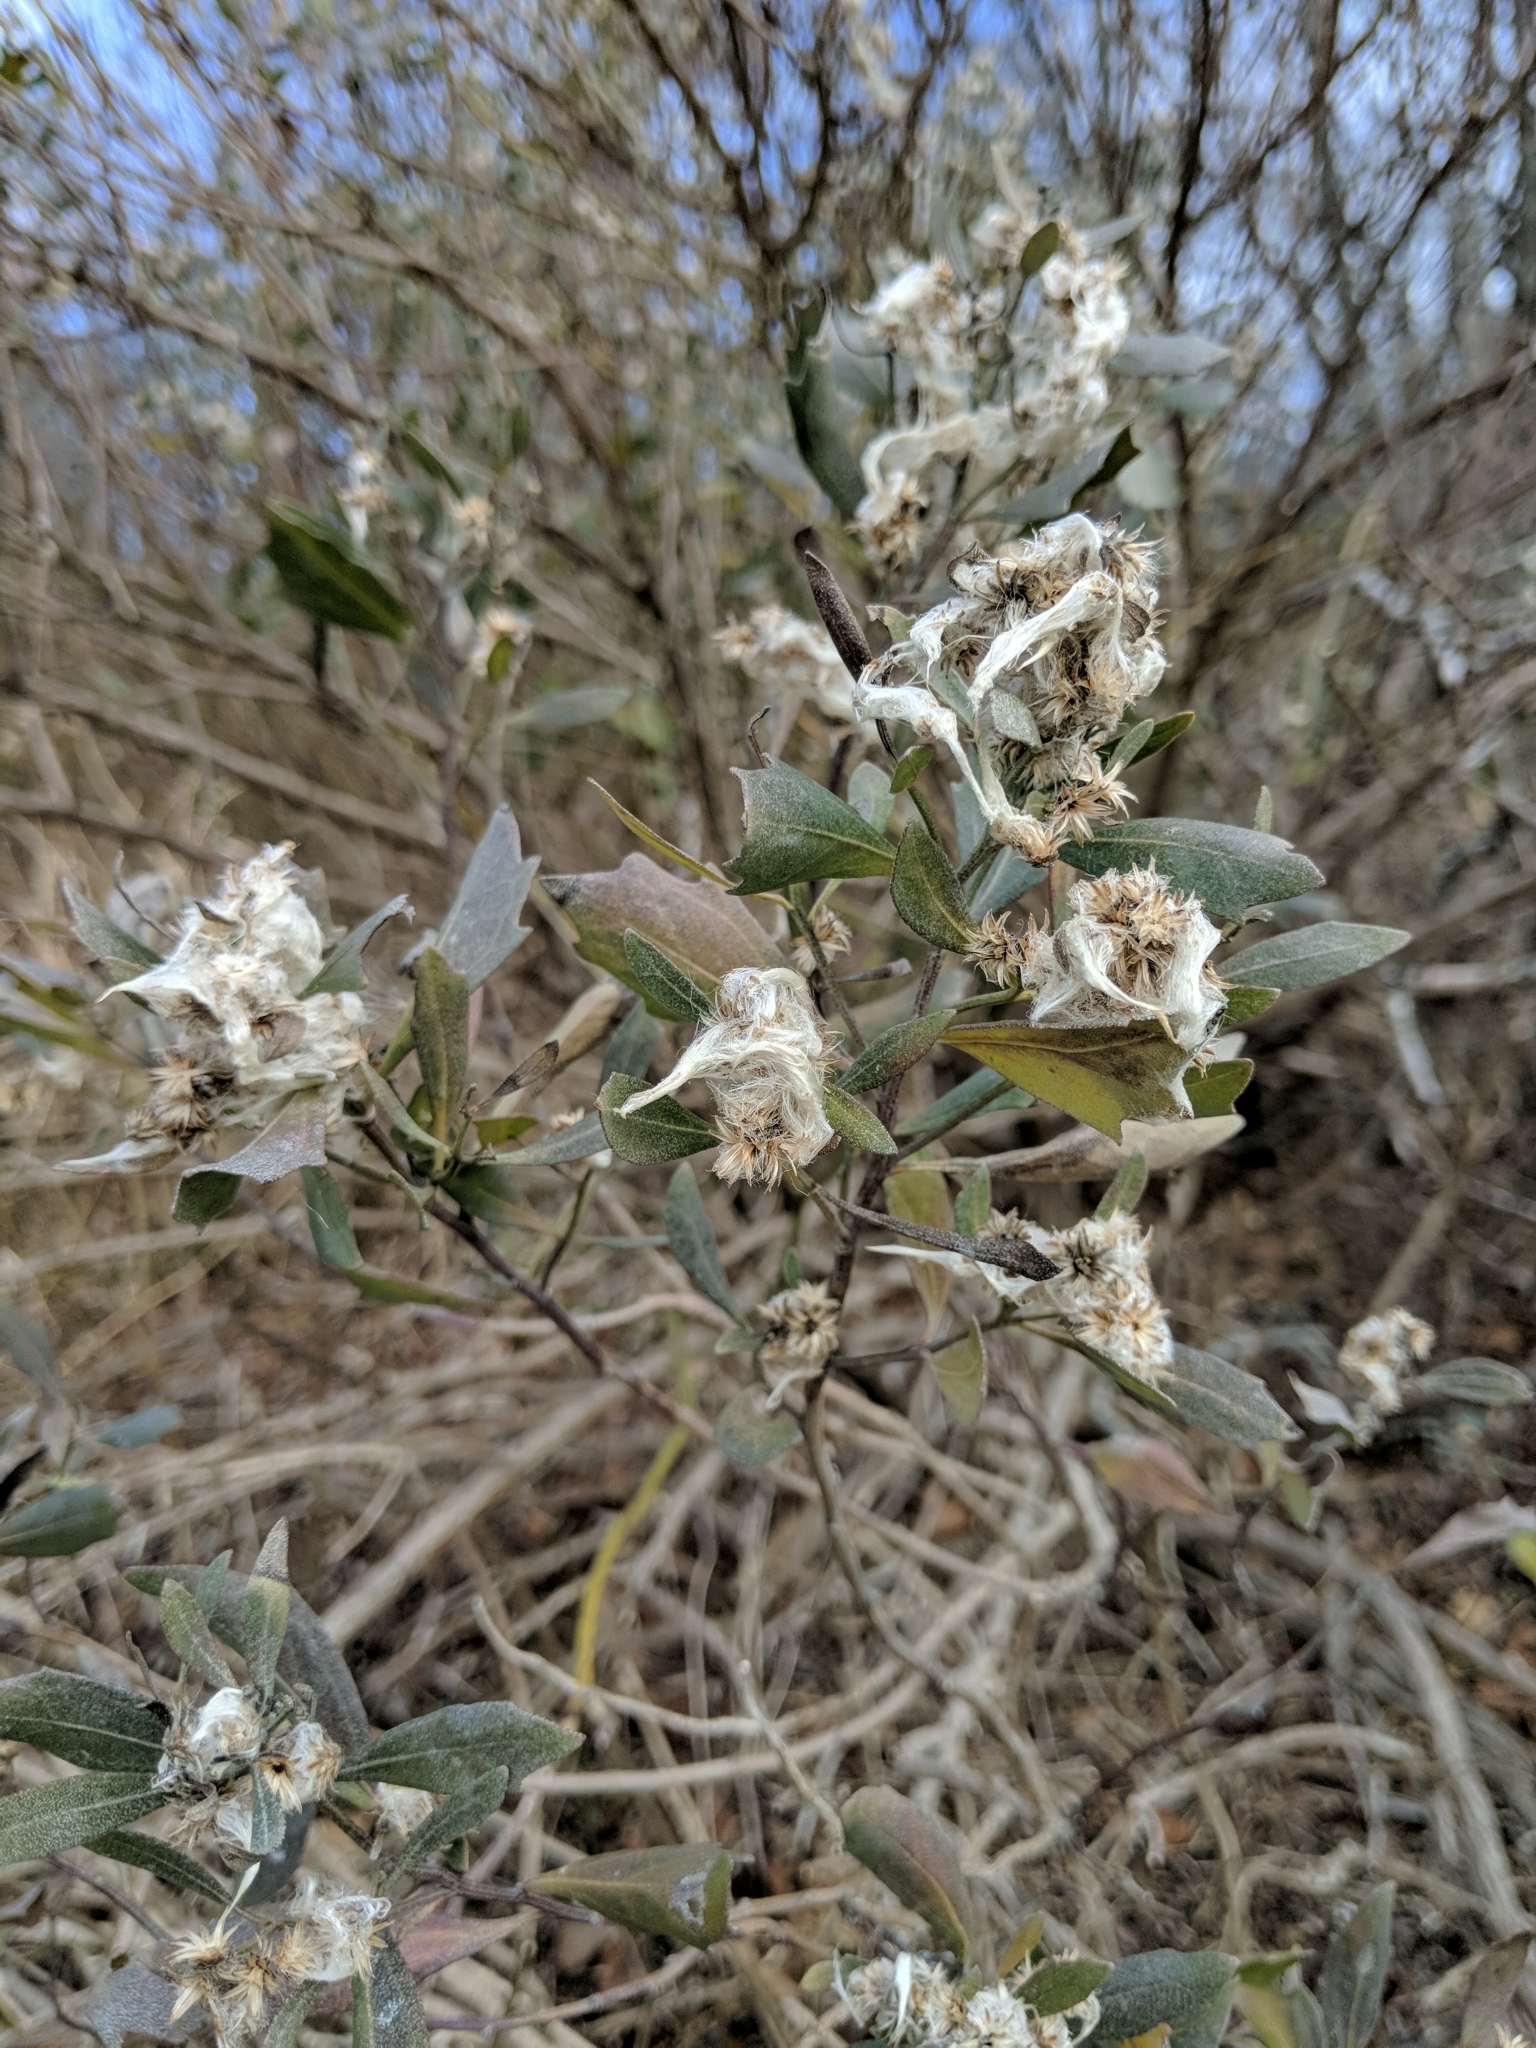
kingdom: Plantae
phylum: Tracheophyta
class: Magnoliopsida
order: Asterales
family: Asteraceae
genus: Baccharis
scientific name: Baccharis halimifolia
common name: Eastern baccharis
